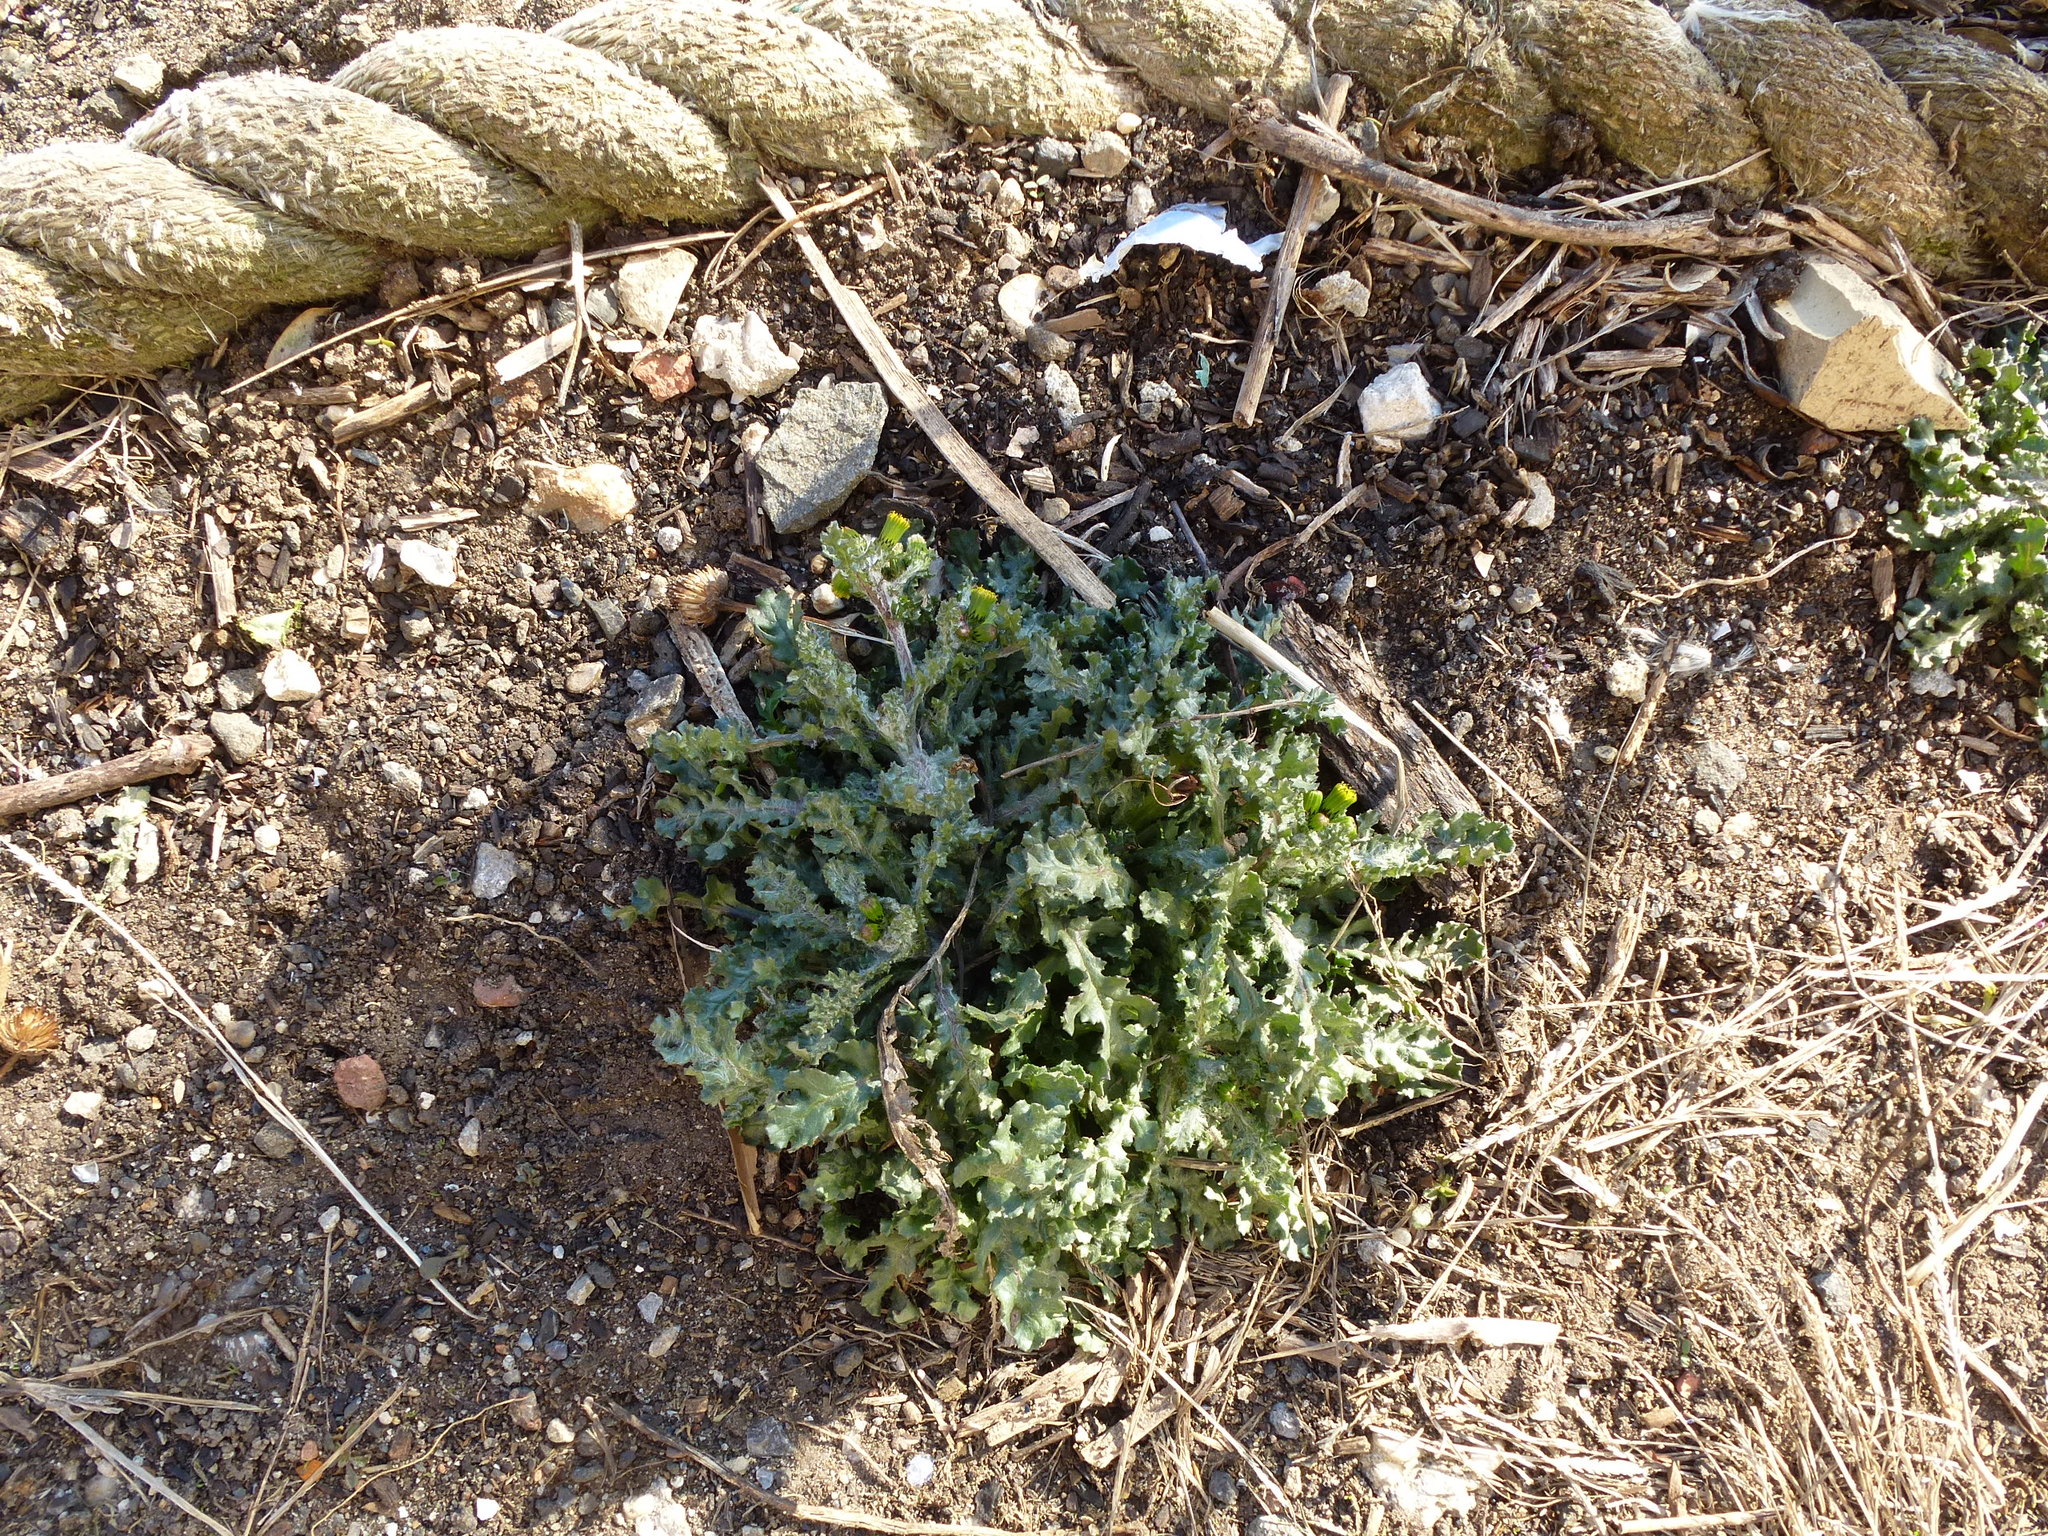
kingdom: Plantae
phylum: Tracheophyta
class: Magnoliopsida
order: Asterales
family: Asteraceae
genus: Senecio
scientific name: Senecio vulgaris
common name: Old-man-in-the-spring
